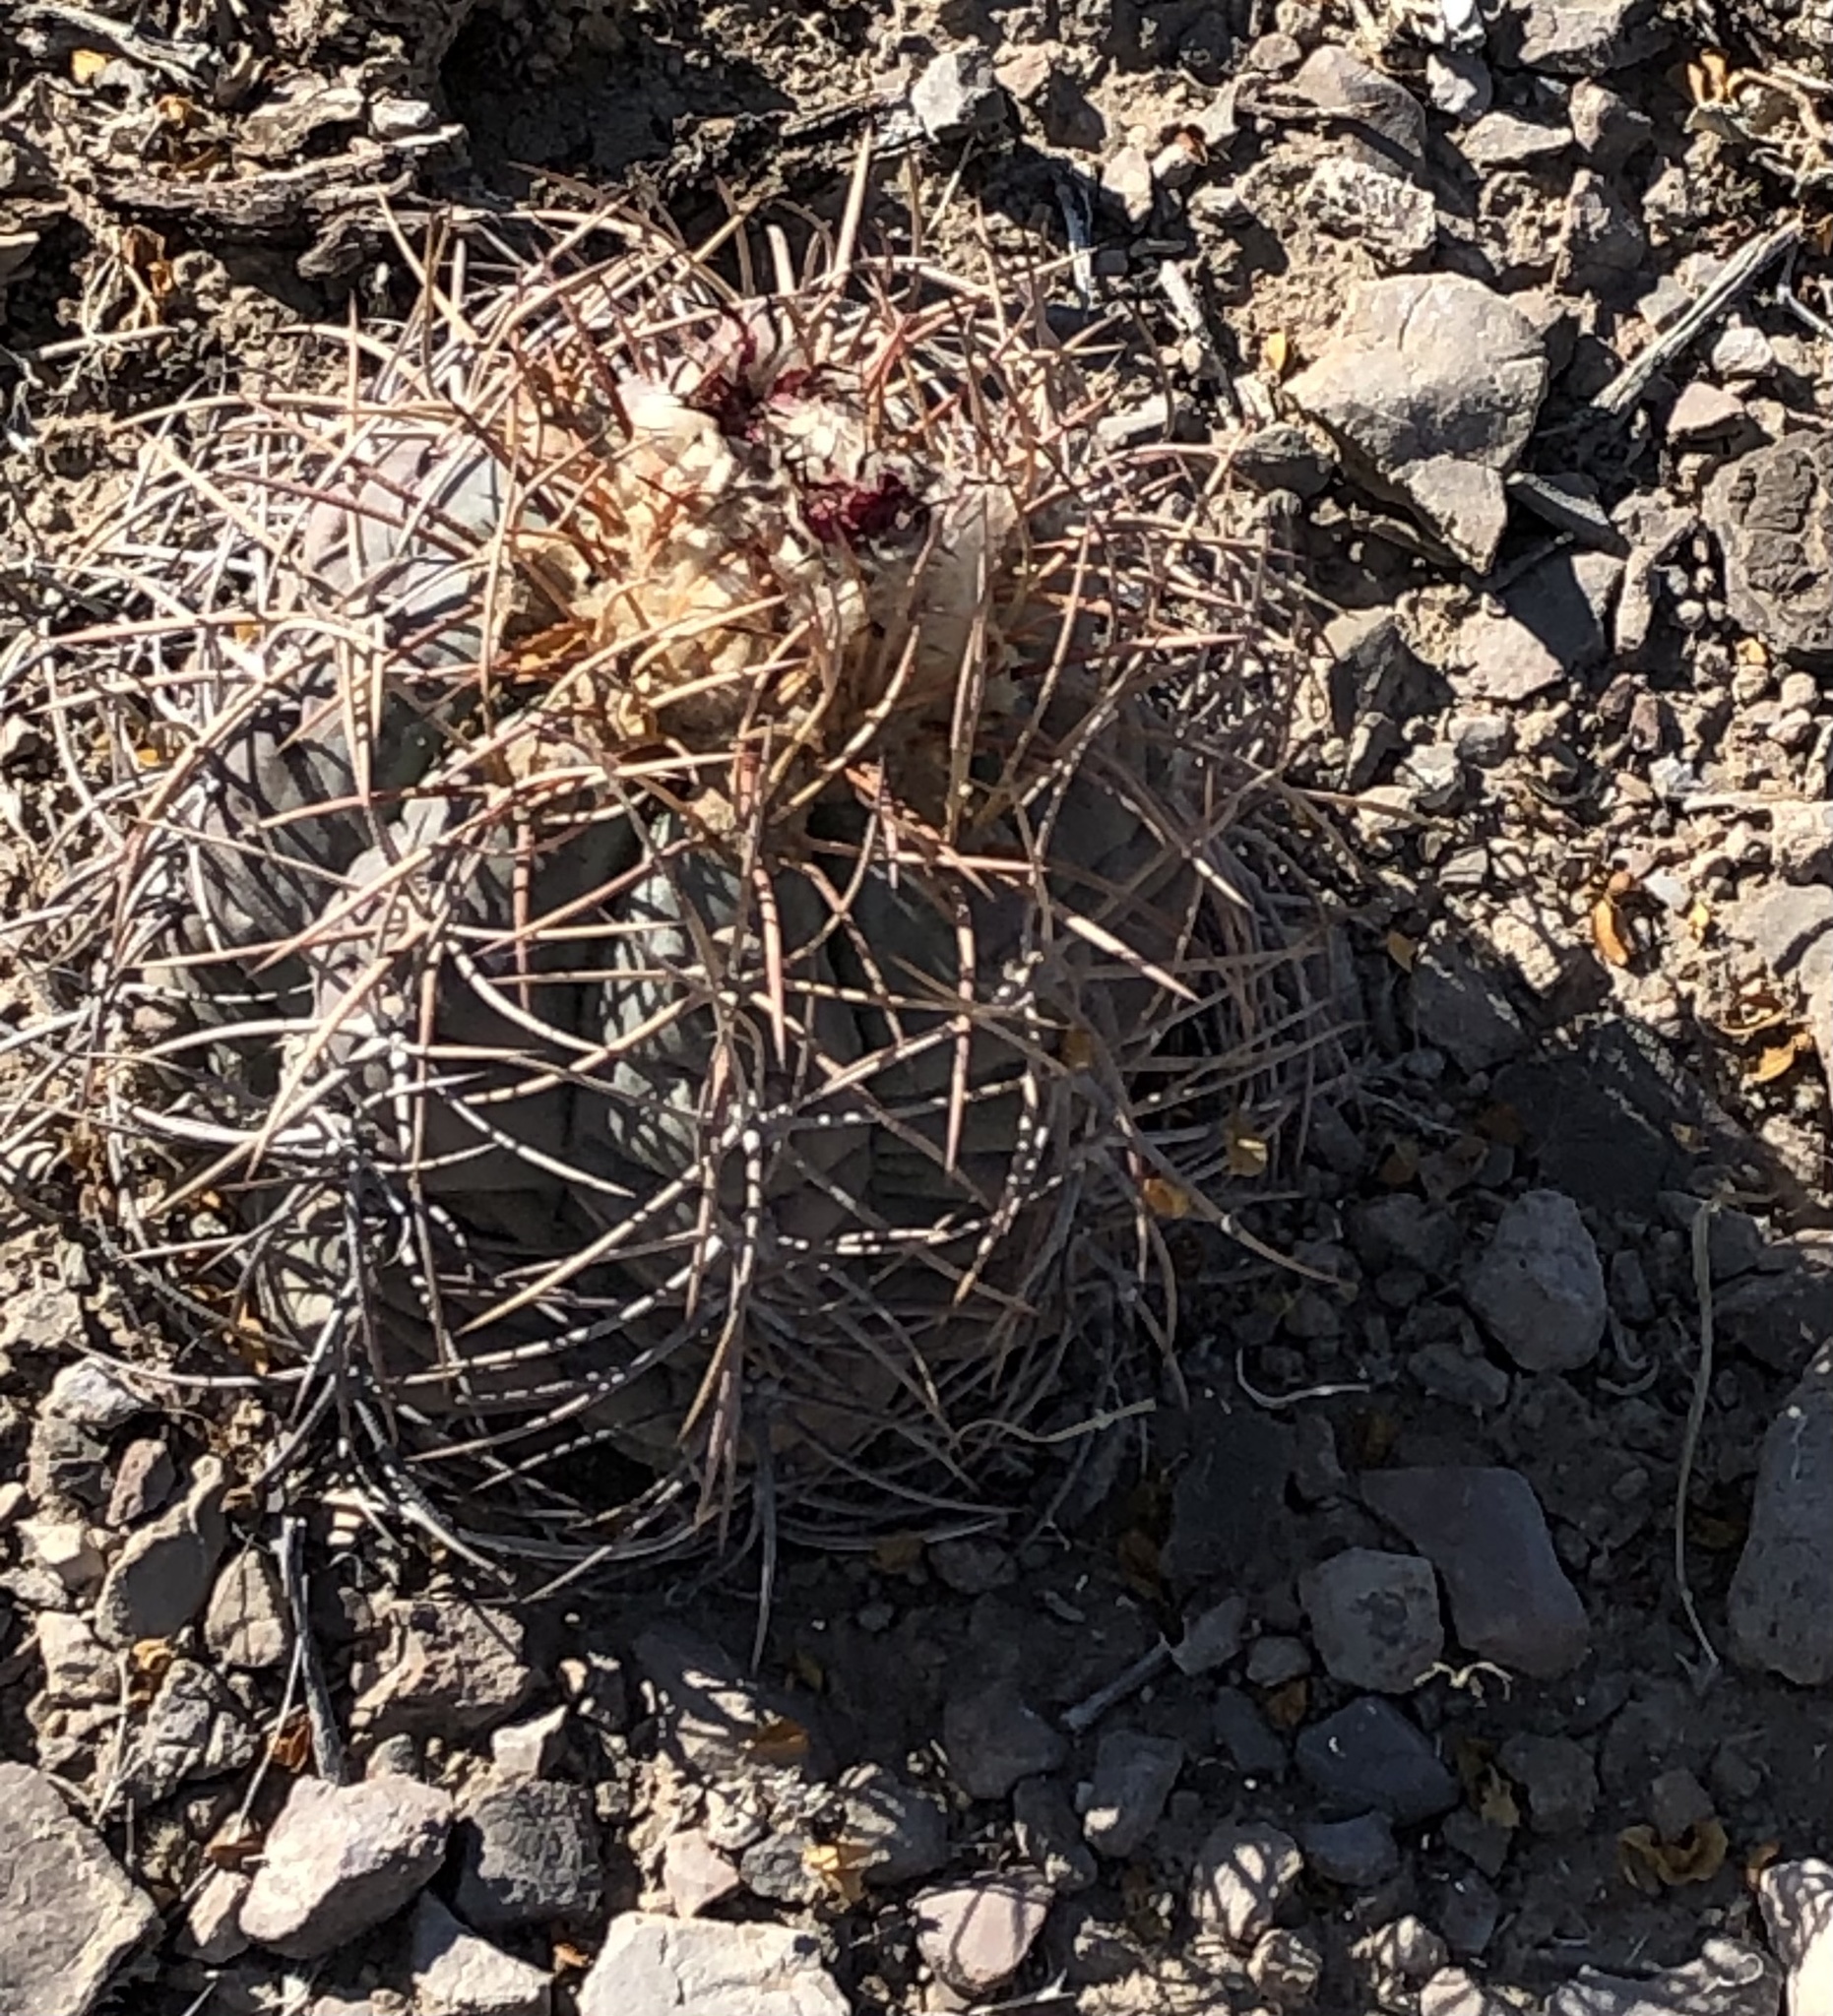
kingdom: Plantae
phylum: Tracheophyta
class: Magnoliopsida
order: Caryophyllales
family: Cactaceae
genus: Echinocactus
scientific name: Echinocactus horizonthalonius
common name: Devilshead
